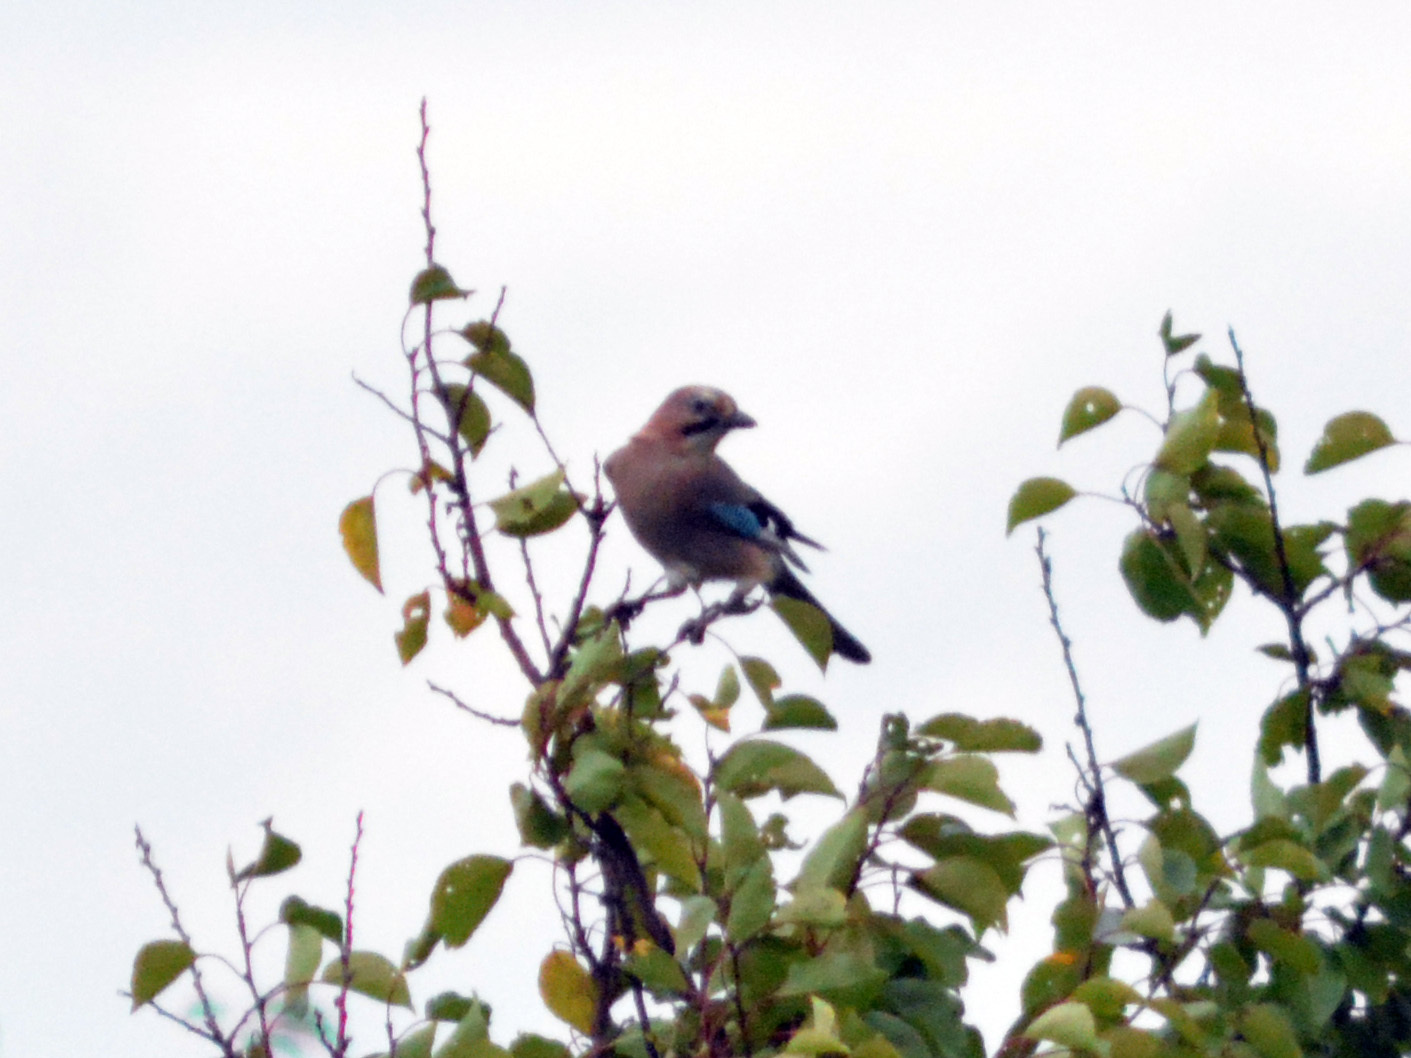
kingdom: Animalia
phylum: Chordata
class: Aves
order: Passeriformes
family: Corvidae
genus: Garrulus
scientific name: Garrulus glandarius
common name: Eurasian jay
